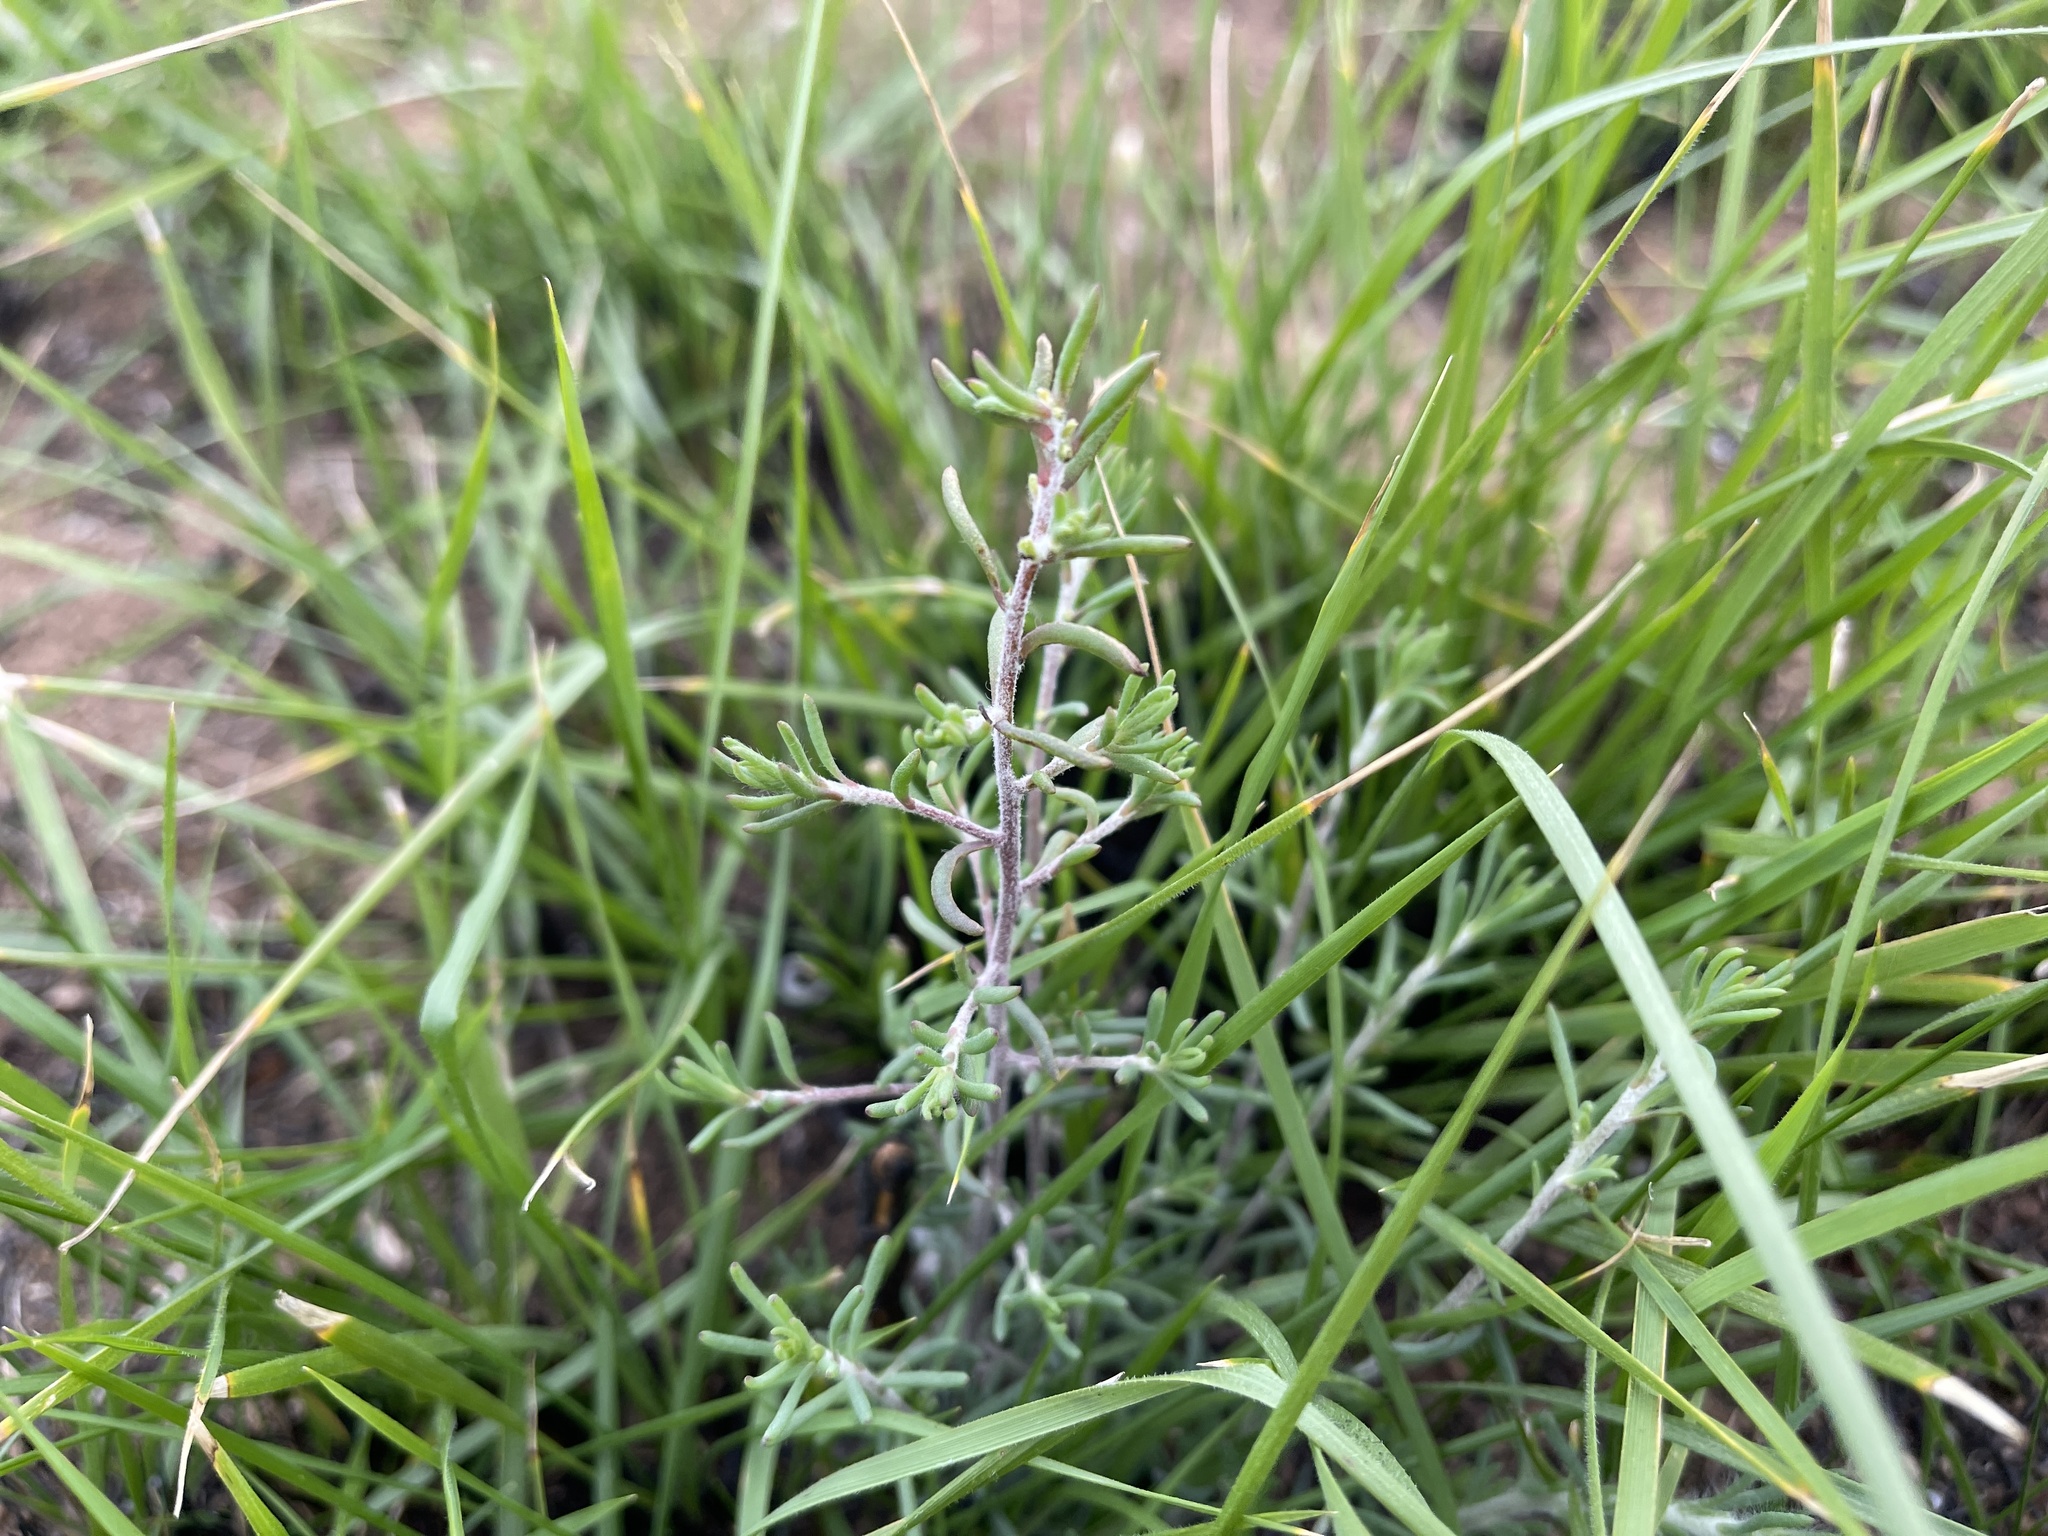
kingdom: Plantae
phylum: Tracheophyta
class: Magnoliopsida
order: Caryophyllales
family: Amaranthaceae
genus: Enchylaena
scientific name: Enchylaena tomentosa
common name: Ruby saltbush
